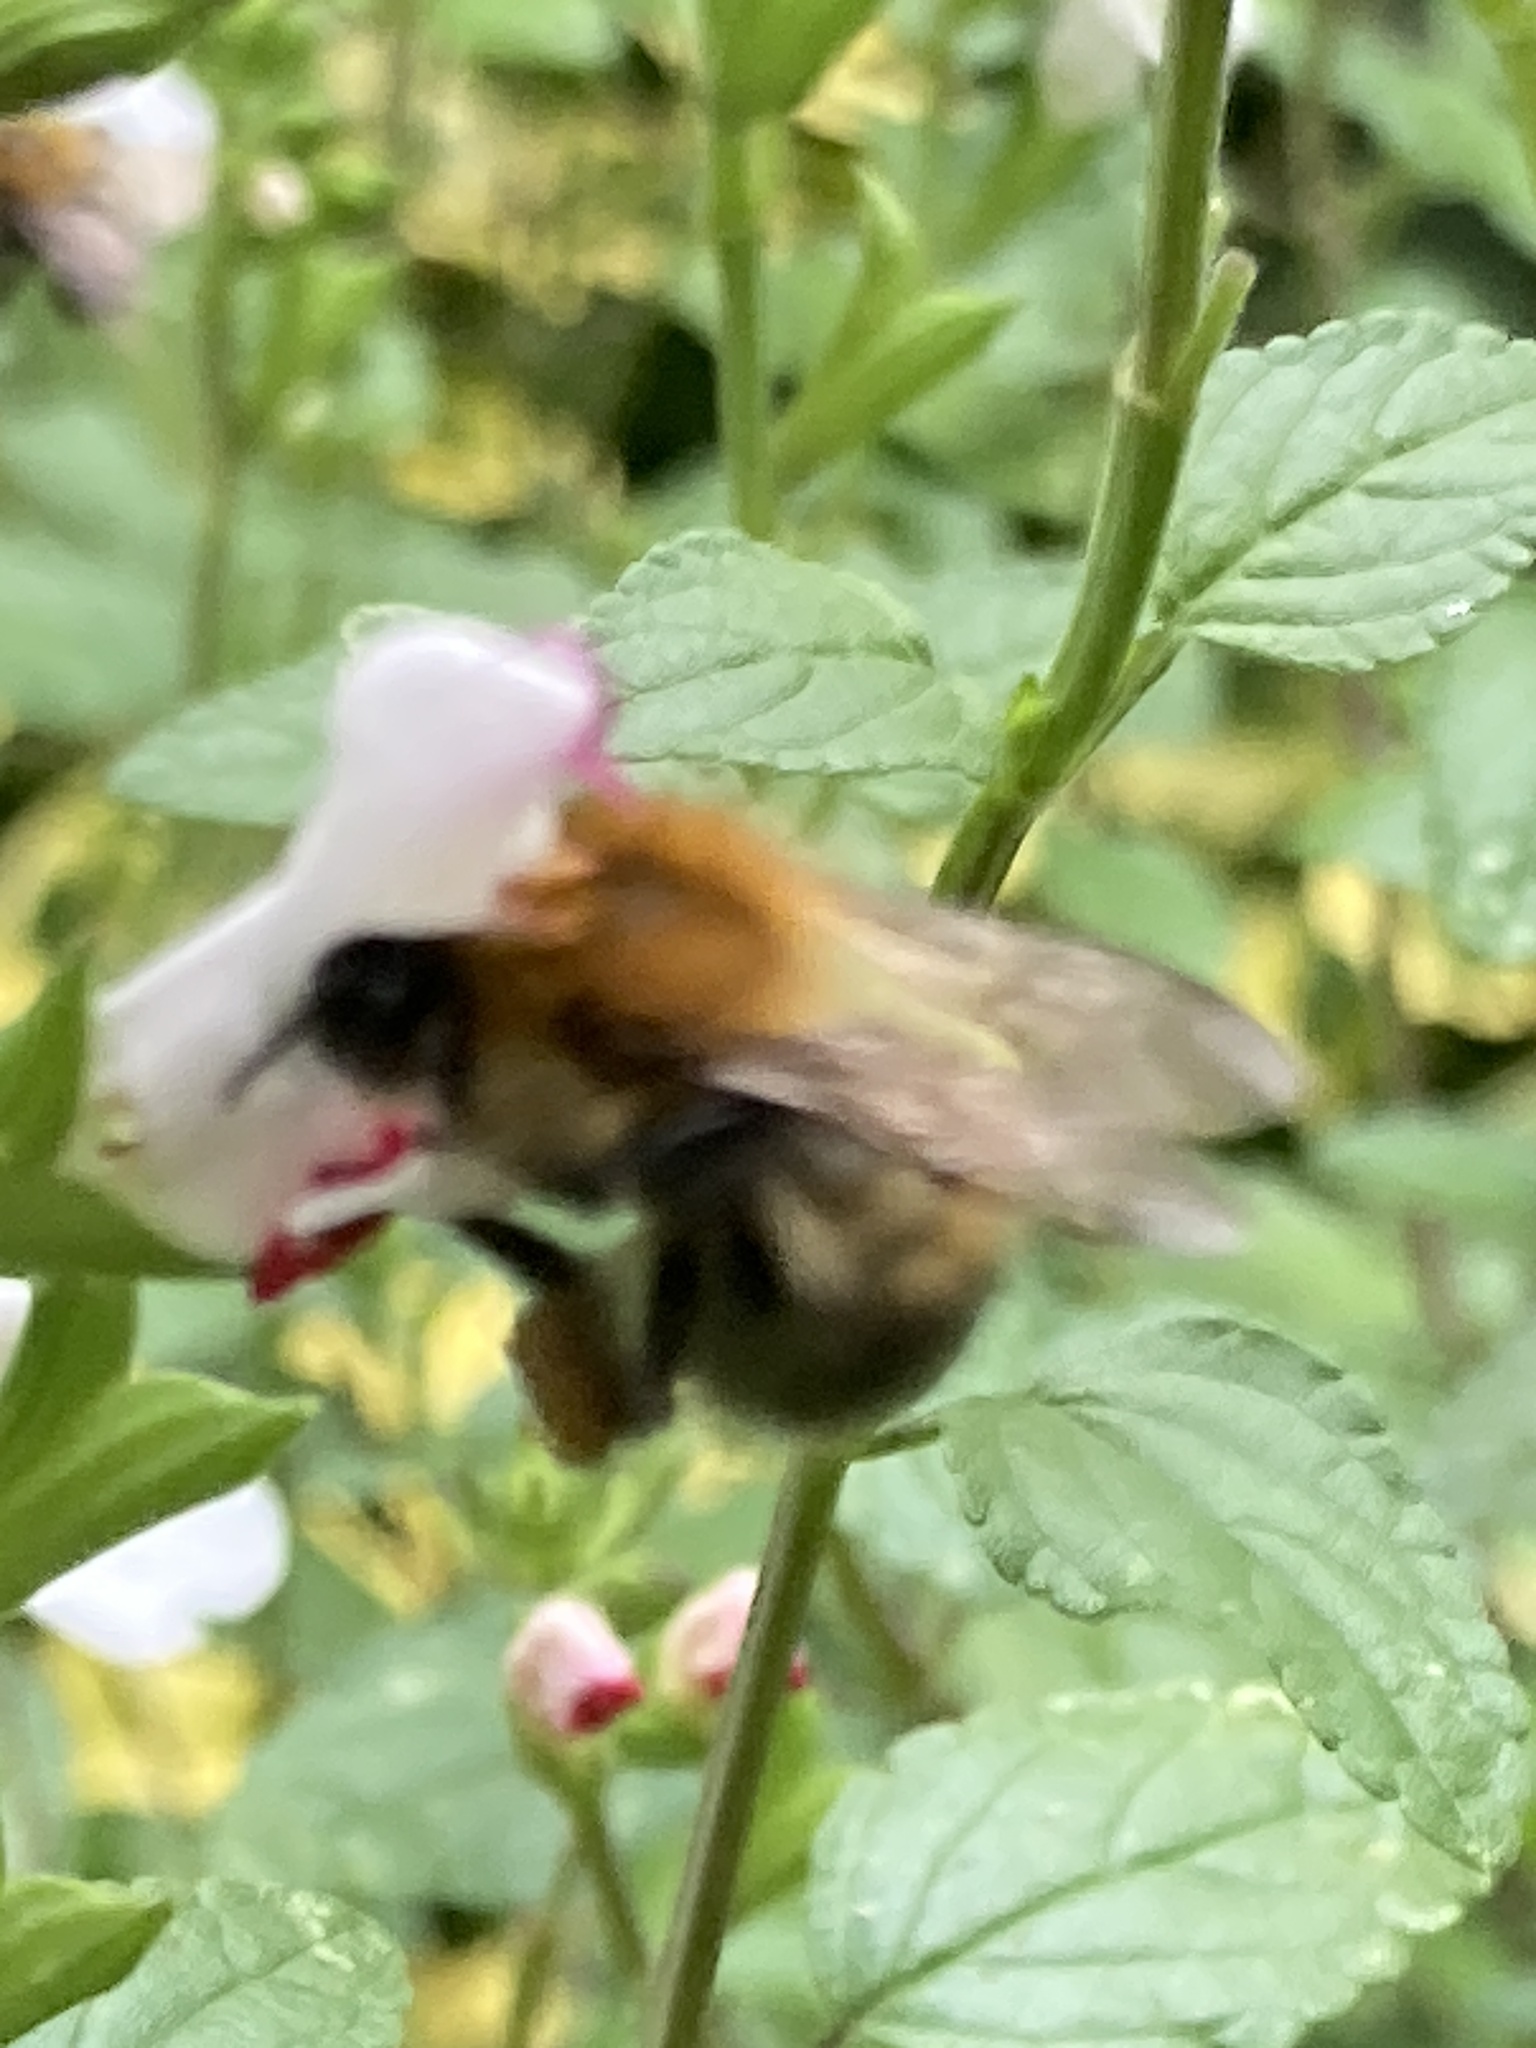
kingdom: Animalia
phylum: Arthropoda
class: Insecta
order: Hymenoptera
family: Apidae
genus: Bombus
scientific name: Bombus pascuorum
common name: Common carder bee
